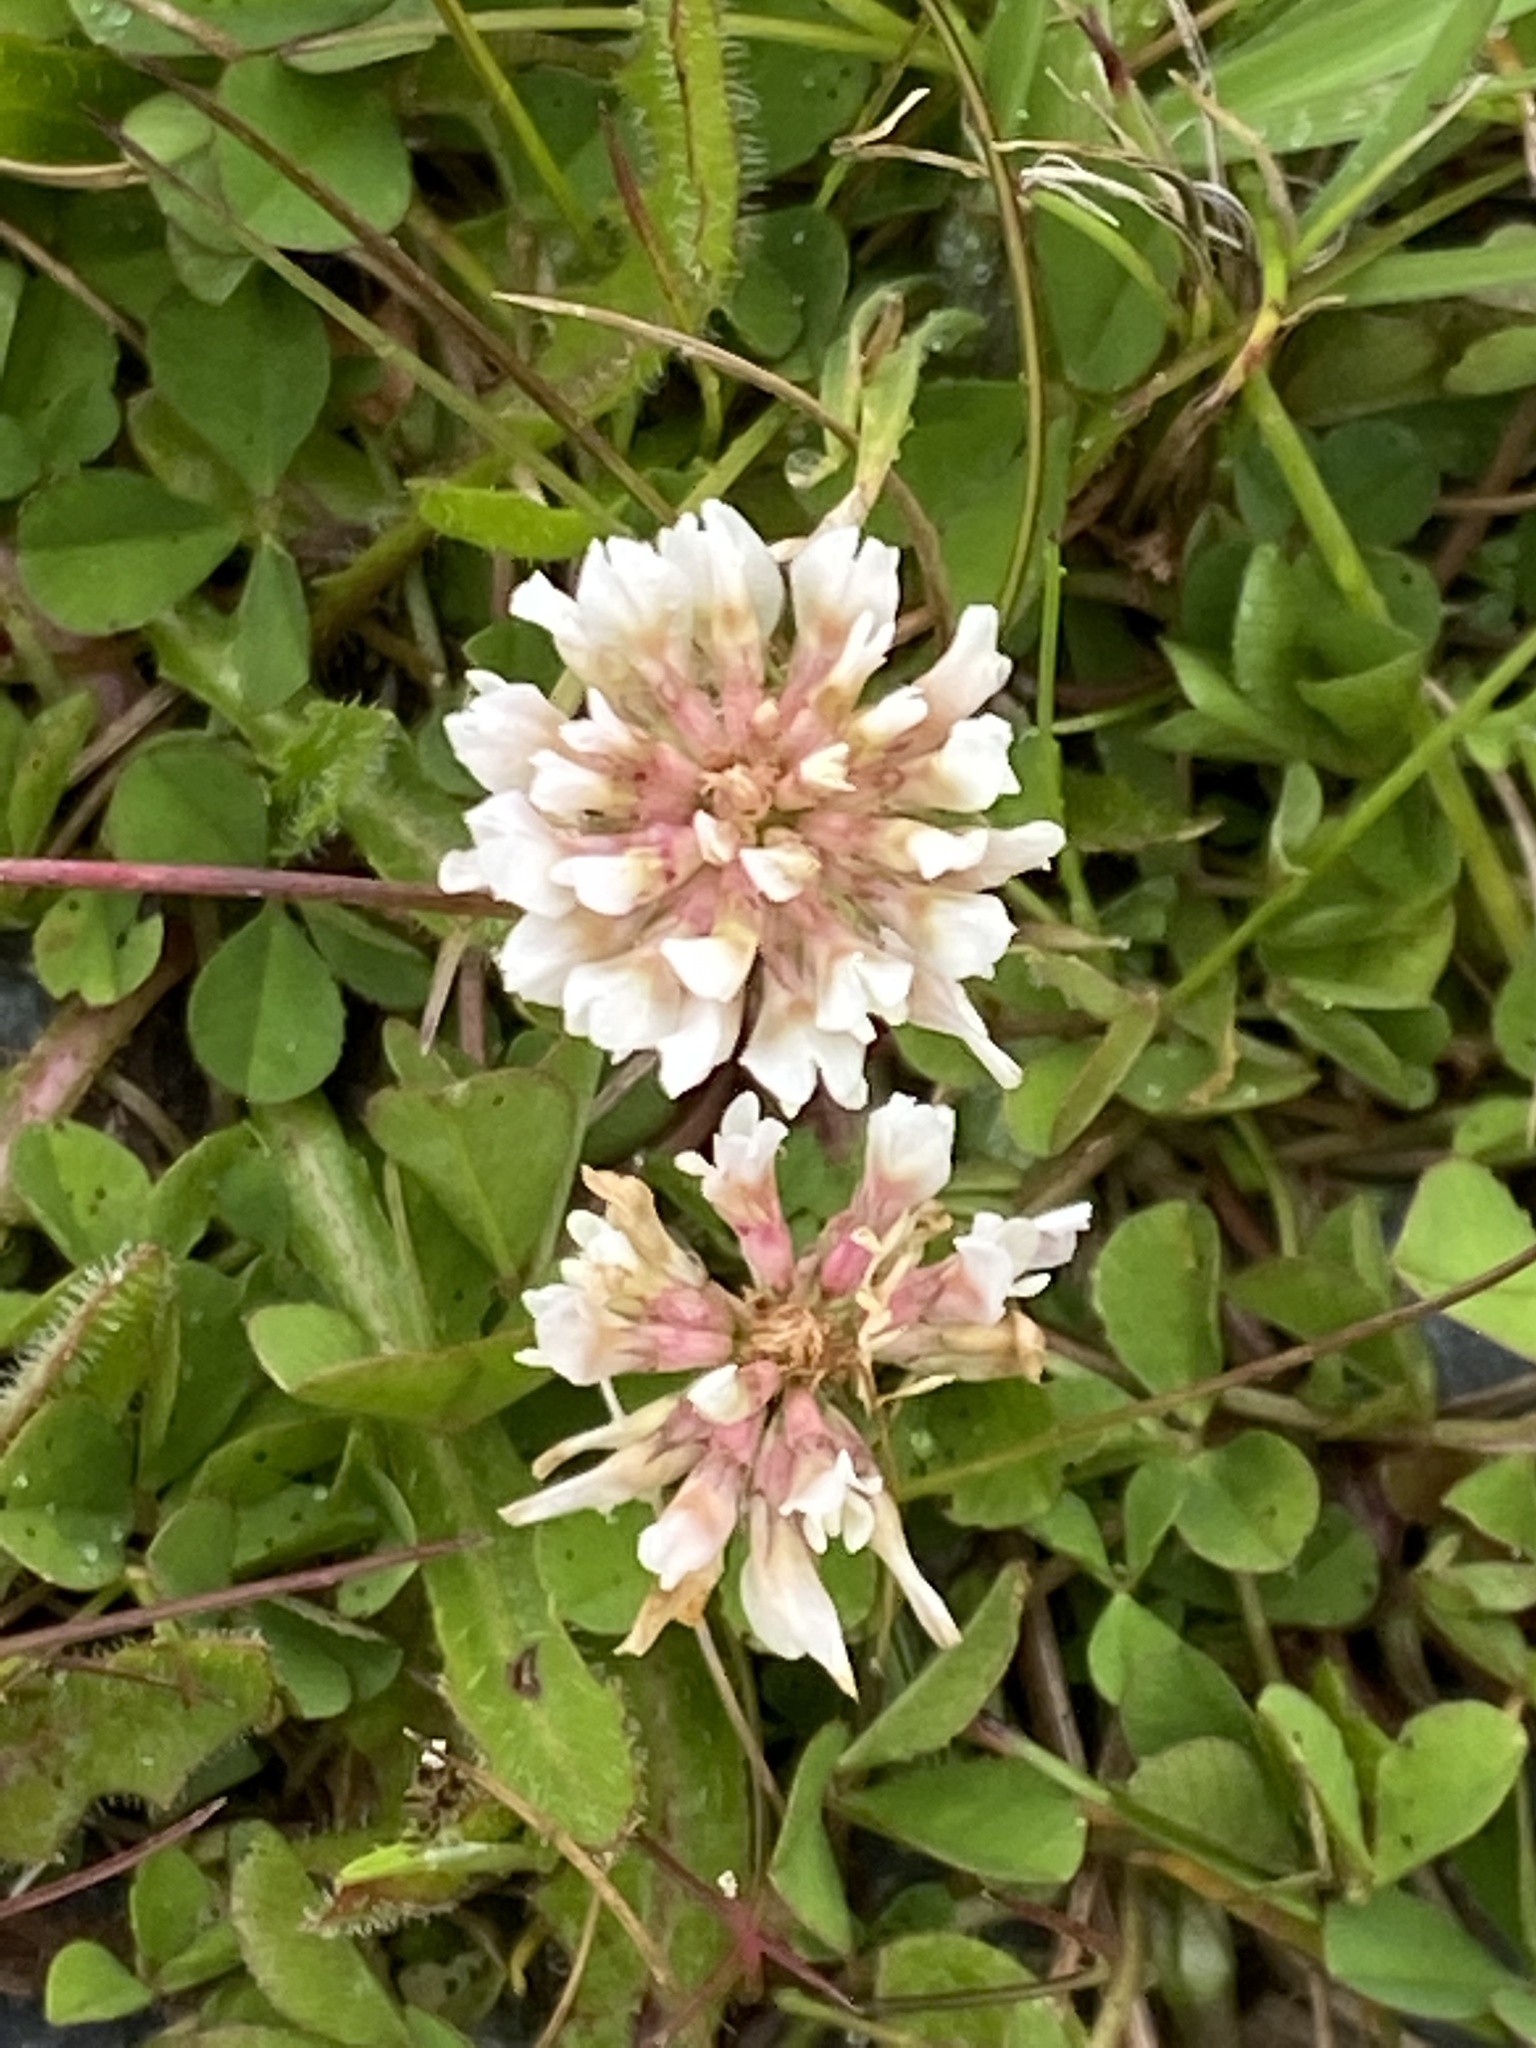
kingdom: Plantae
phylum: Tracheophyta
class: Magnoliopsida
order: Fabales
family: Fabaceae
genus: Trifolium
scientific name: Trifolium repens
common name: White clover
